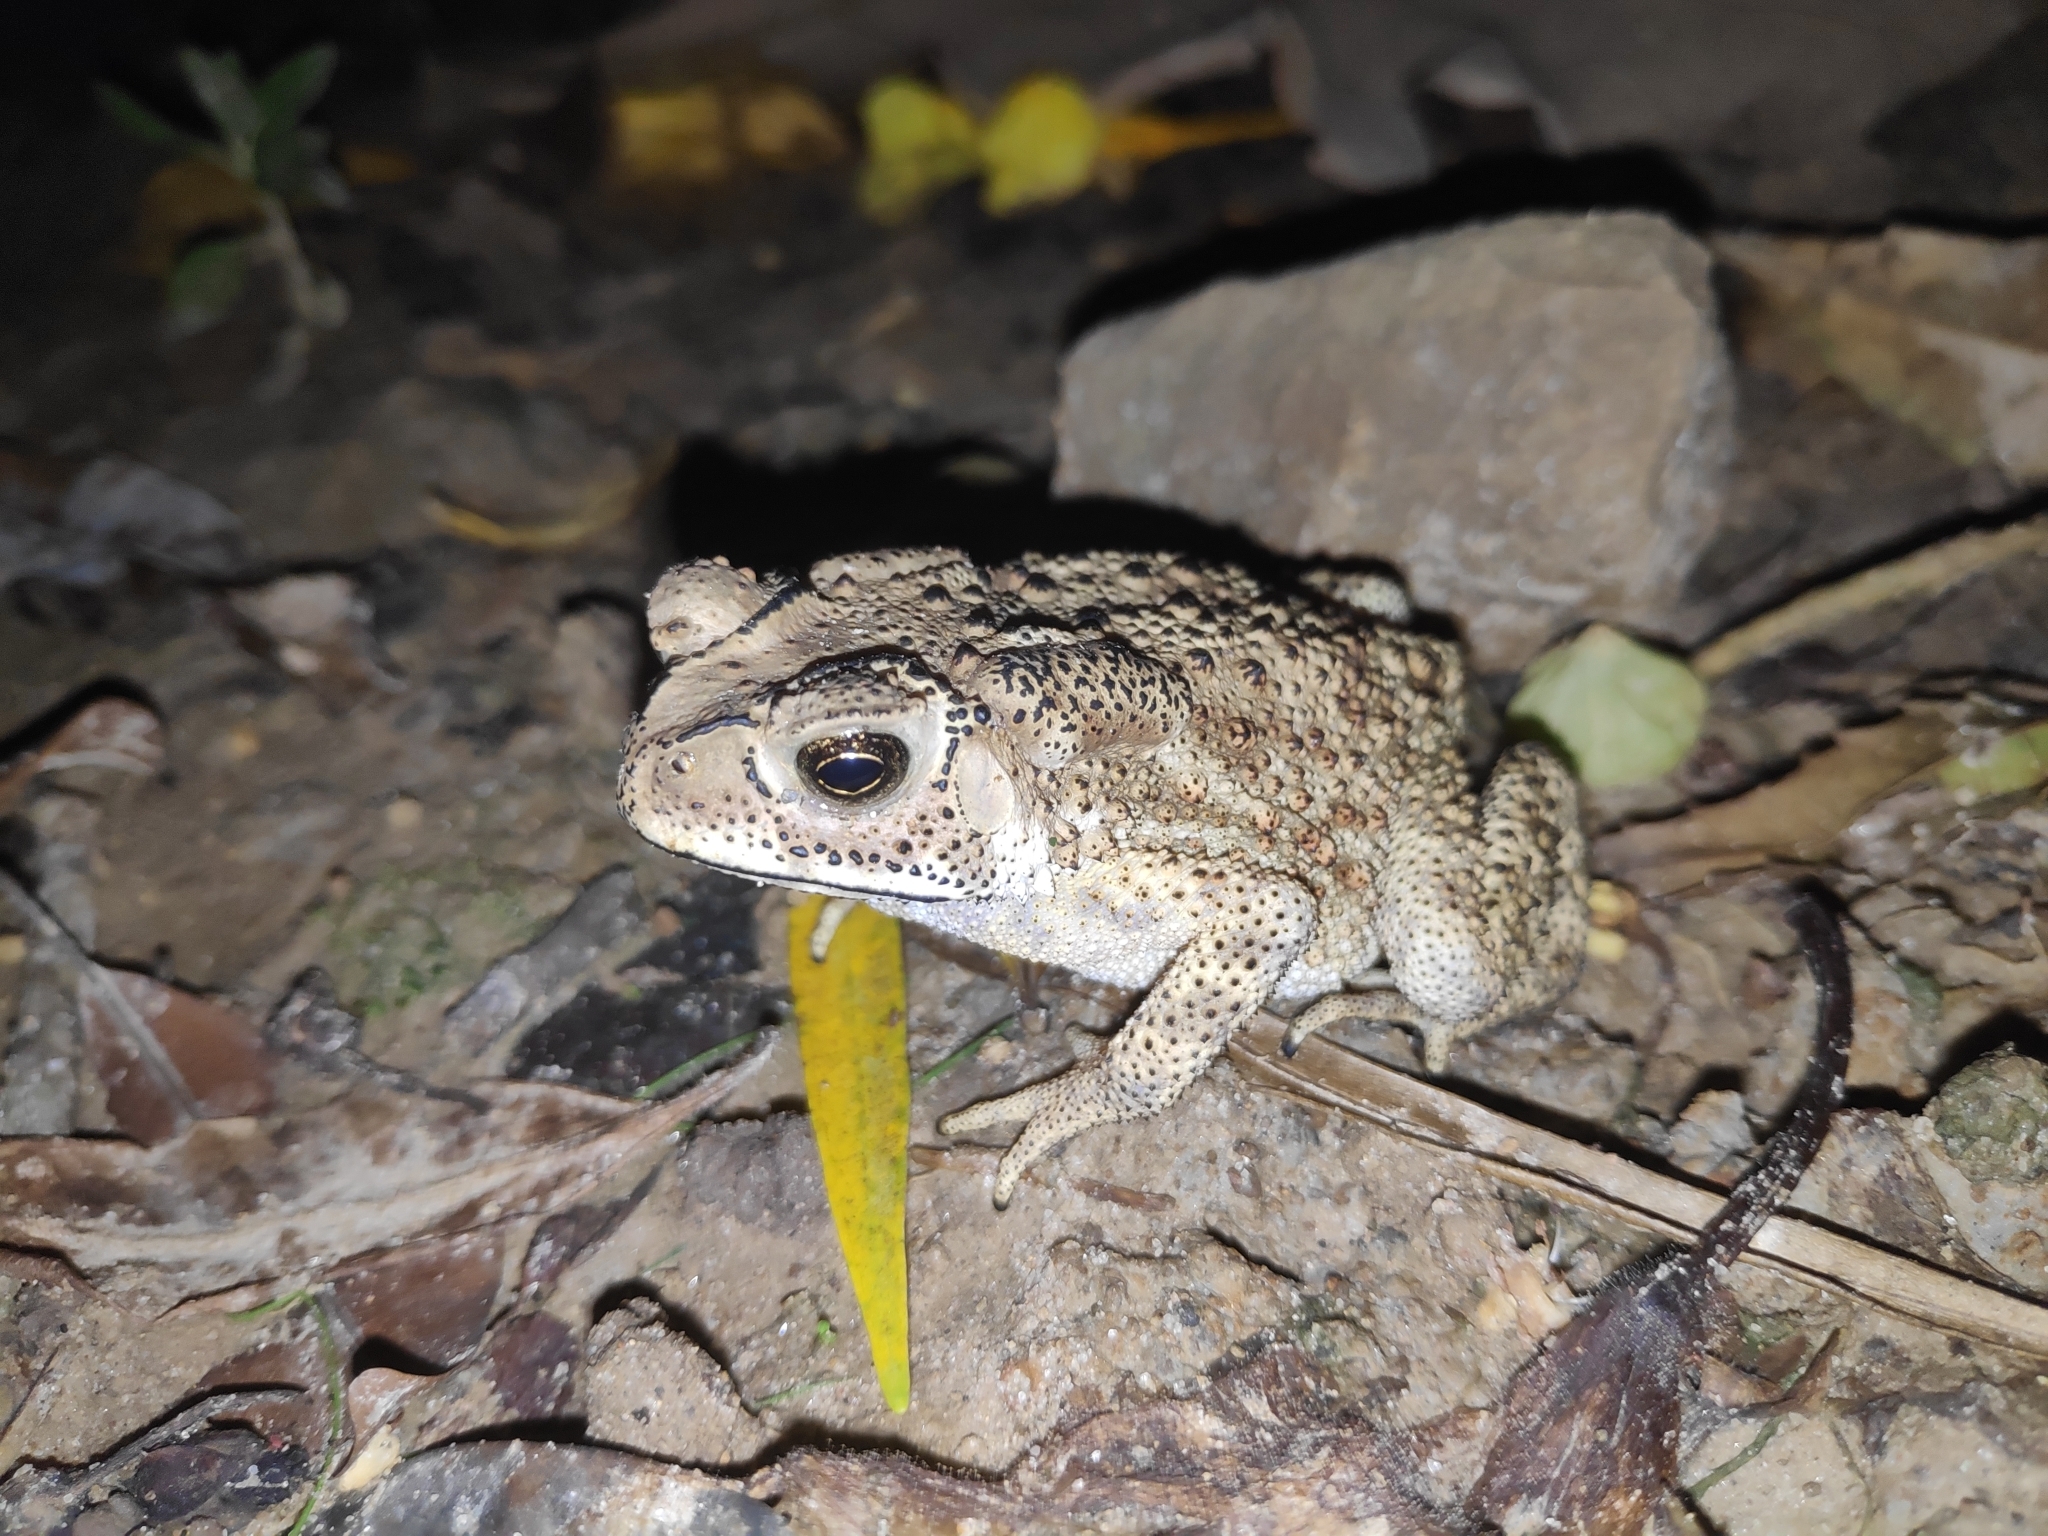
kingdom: Animalia
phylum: Chordata
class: Amphibia
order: Anura
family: Bufonidae
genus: Duttaphrynus
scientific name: Duttaphrynus melanostictus
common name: Common sunda toad
